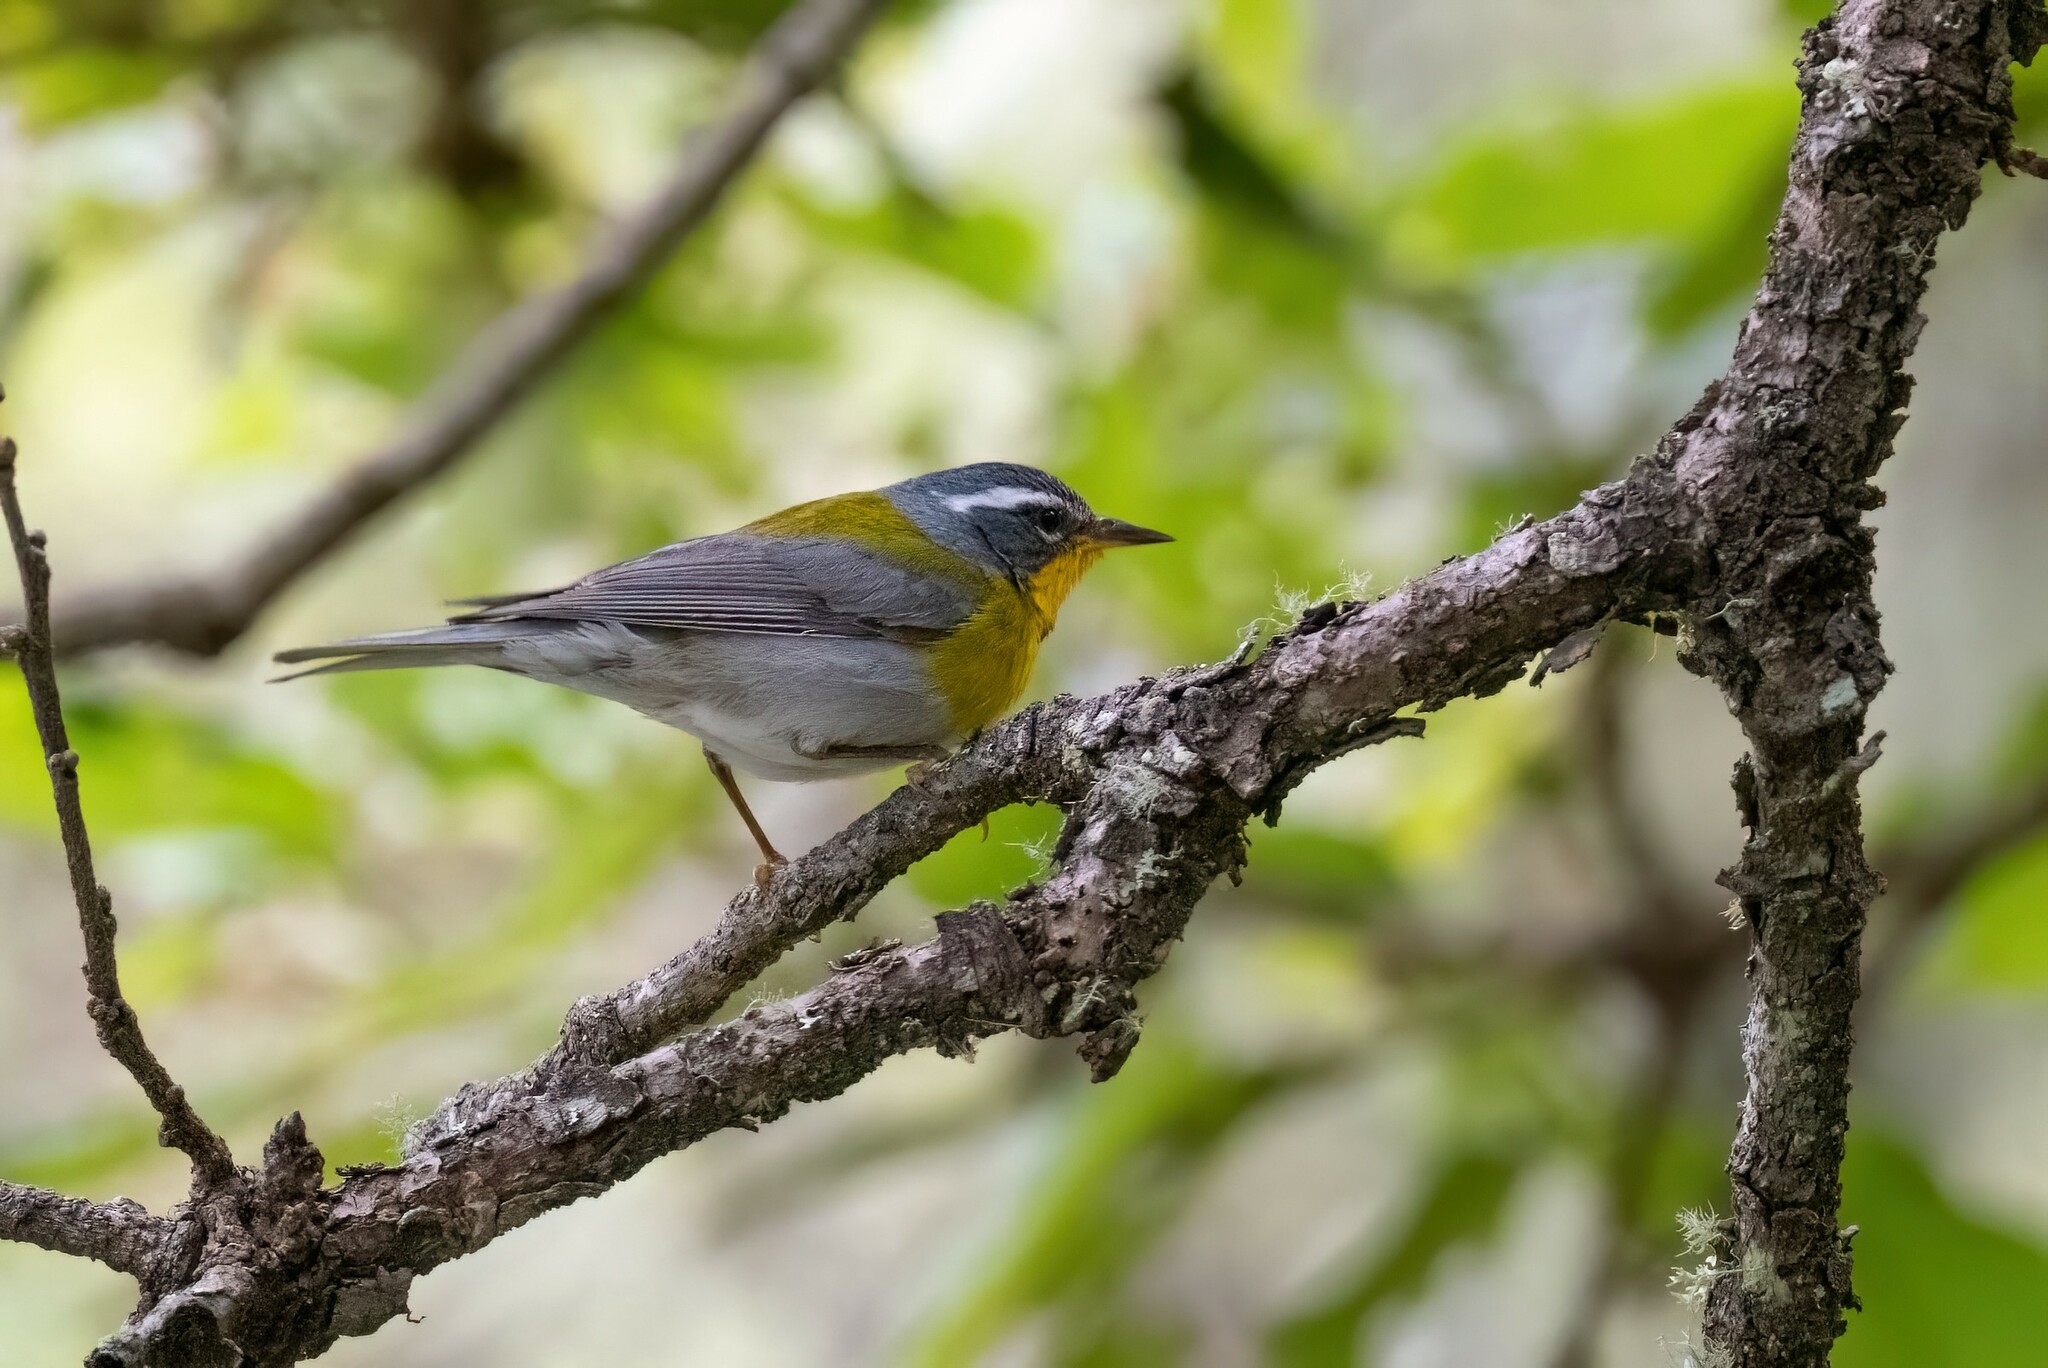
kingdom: Animalia
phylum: Chordata
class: Aves
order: Passeriformes
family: Parulidae
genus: Oreothlypis
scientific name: Oreothlypis superciliosa
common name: Crescent-chested warbler
